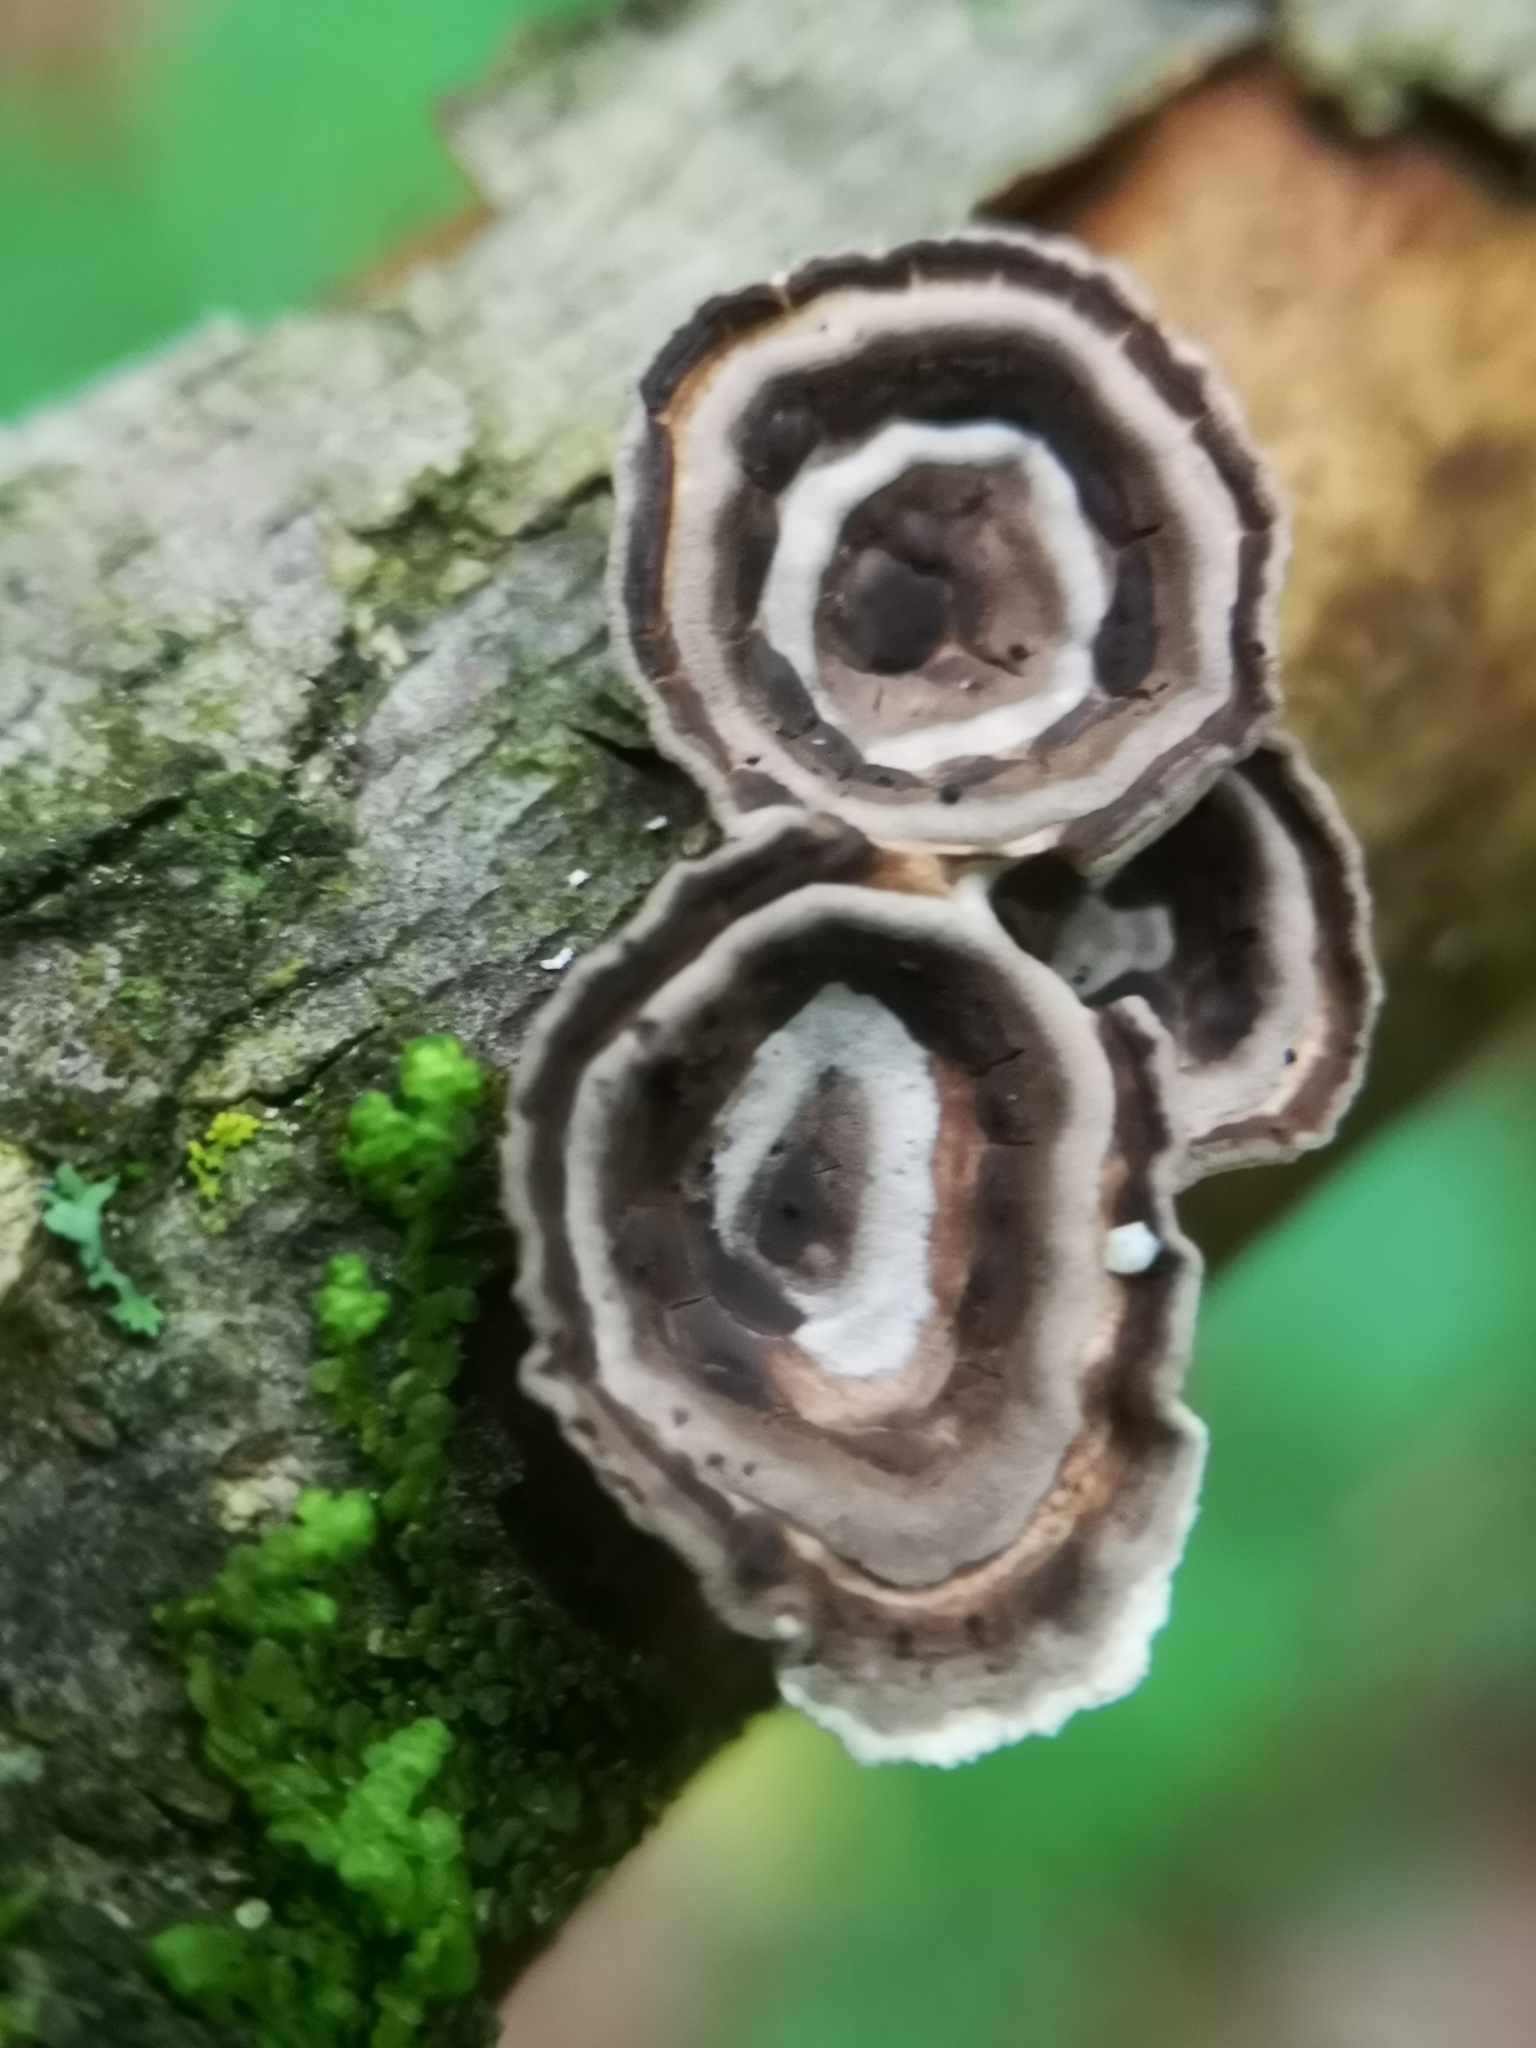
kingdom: Fungi
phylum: Basidiomycota
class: Agaricomycetes
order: Polyporales
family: Polyporaceae
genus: Poronidulus
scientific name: Poronidulus conchifer
